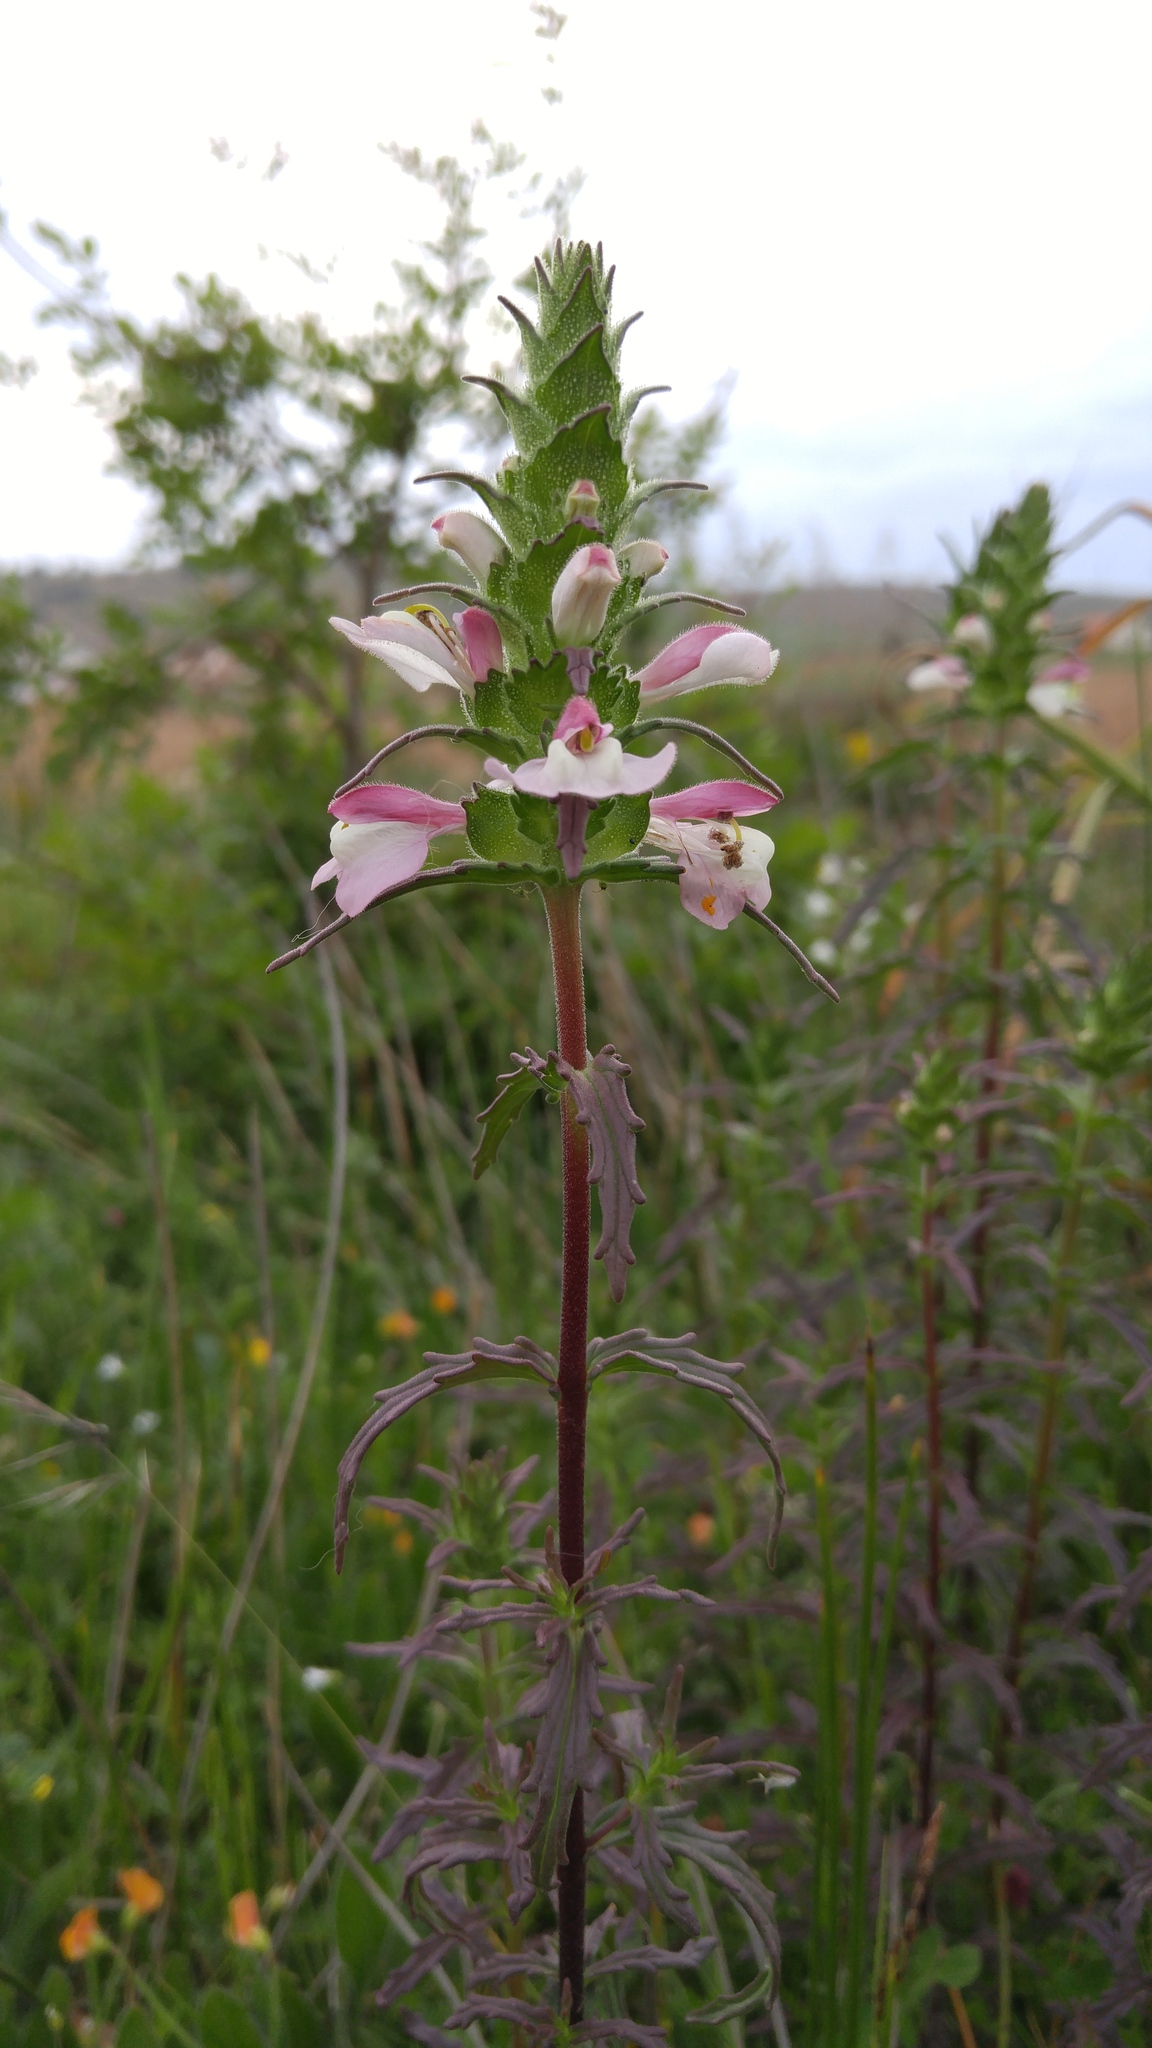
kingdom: Plantae
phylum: Tracheophyta
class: Magnoliopsida
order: Lamiales
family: Orobanchaceae
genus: Bellardia
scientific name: Bellardia trixago
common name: Mediterranean lineseed
